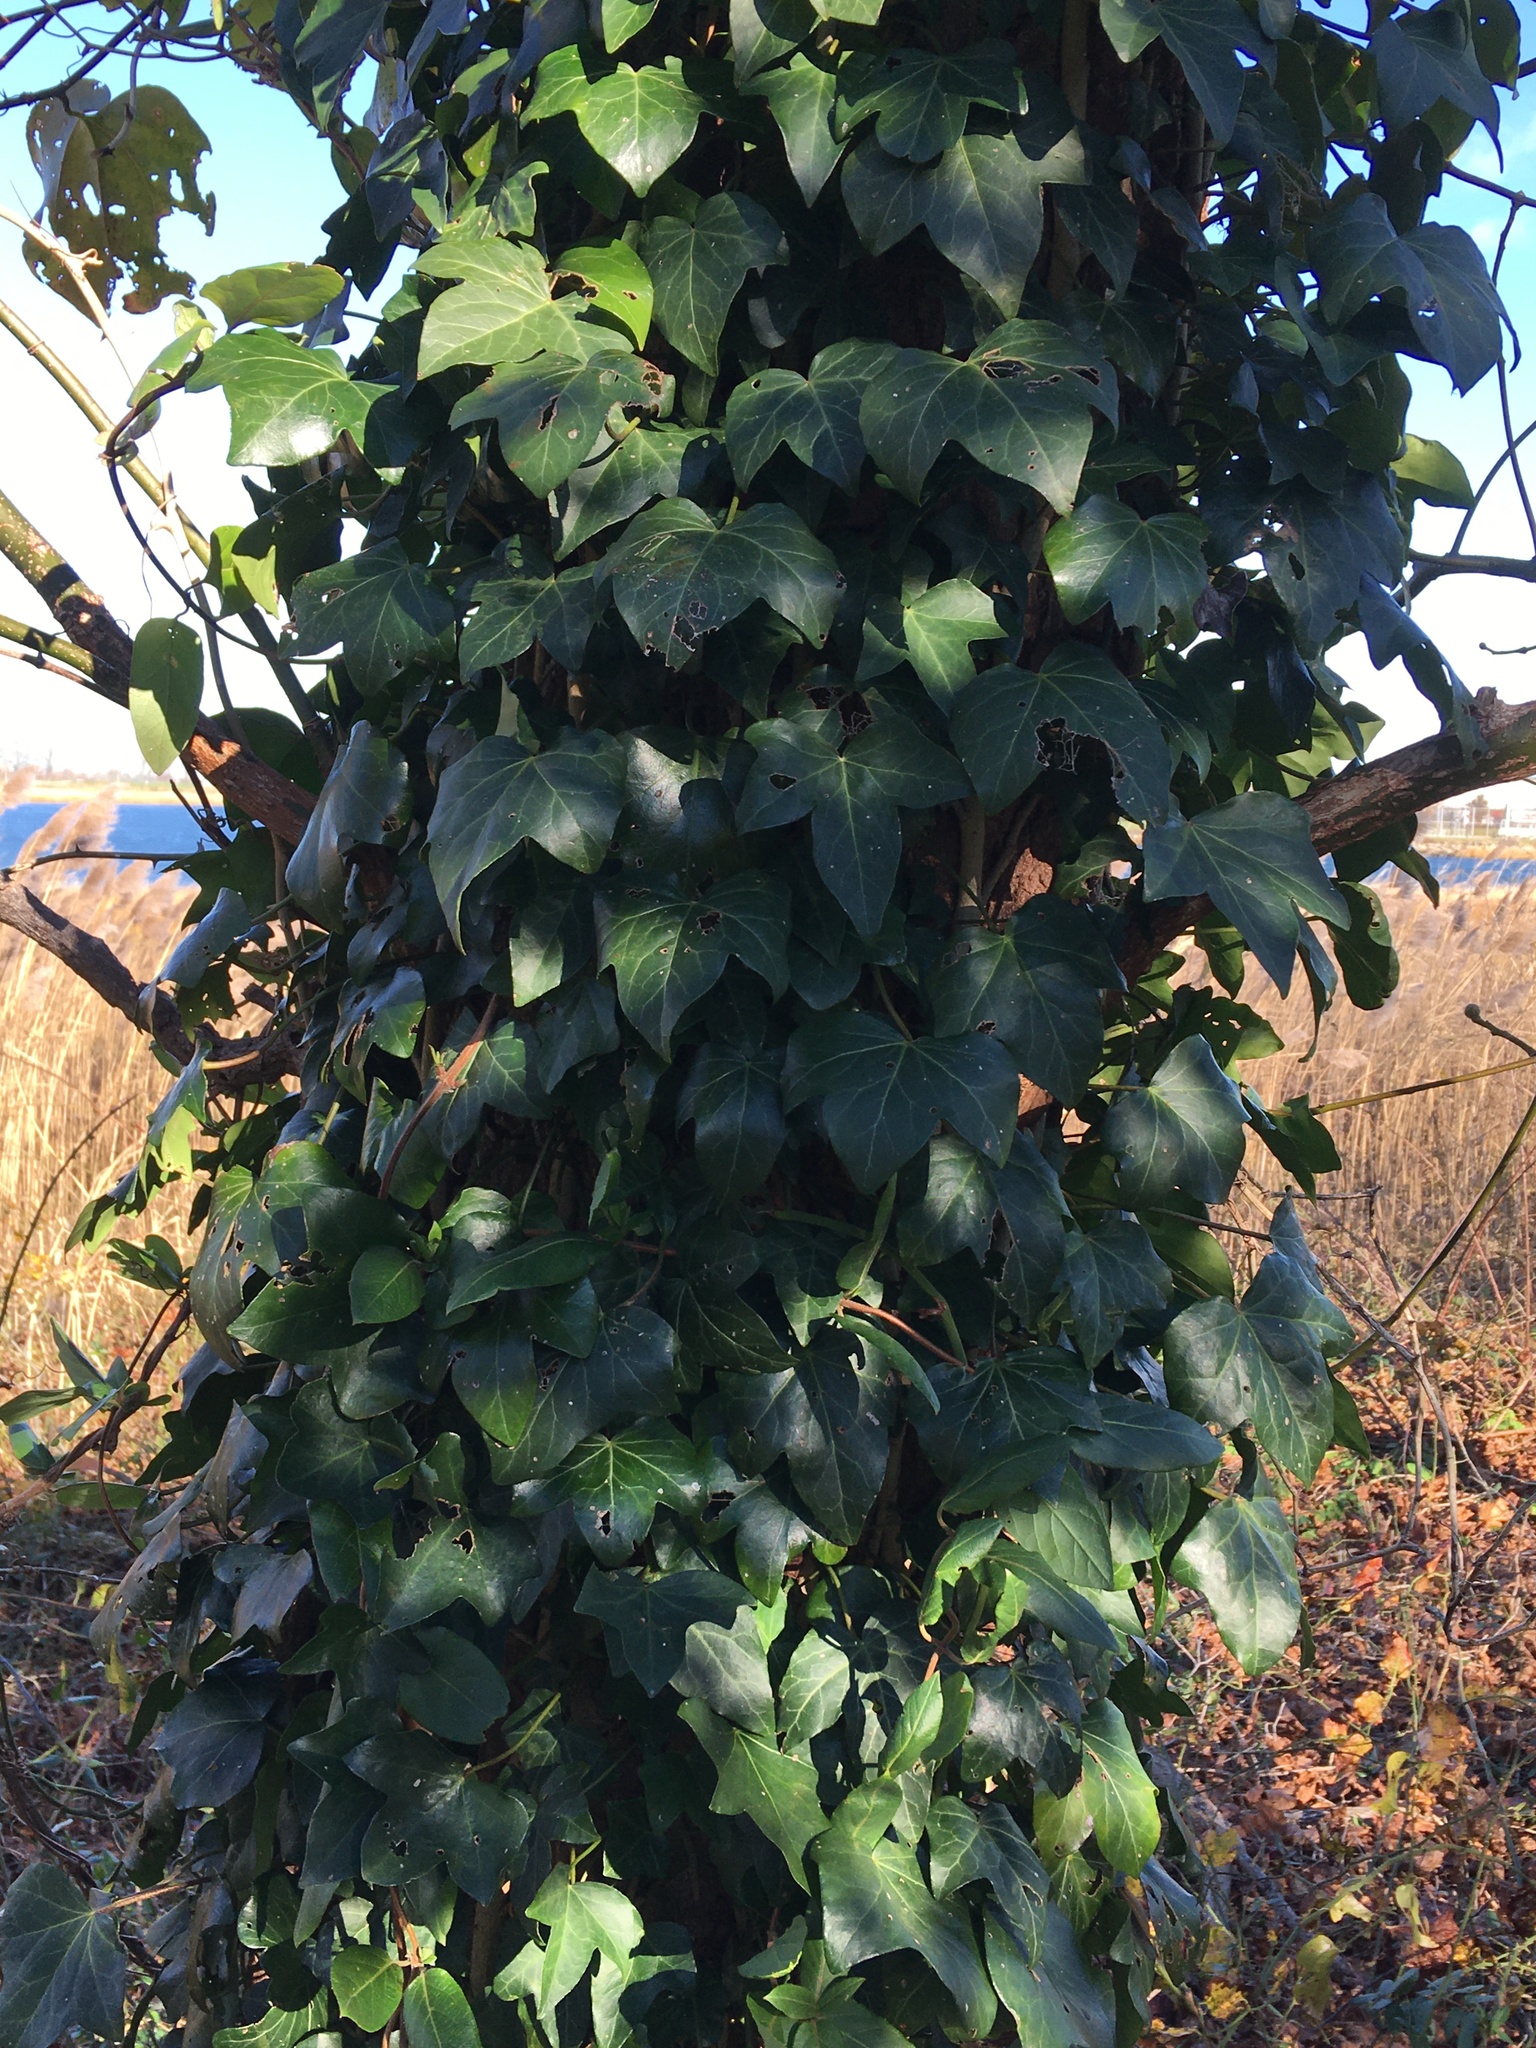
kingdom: Plantae
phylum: Tracheophyta
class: Magnoliopsida
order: Apiales
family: Araliaceae
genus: Hedera
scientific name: Hedera helix
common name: Ivy
